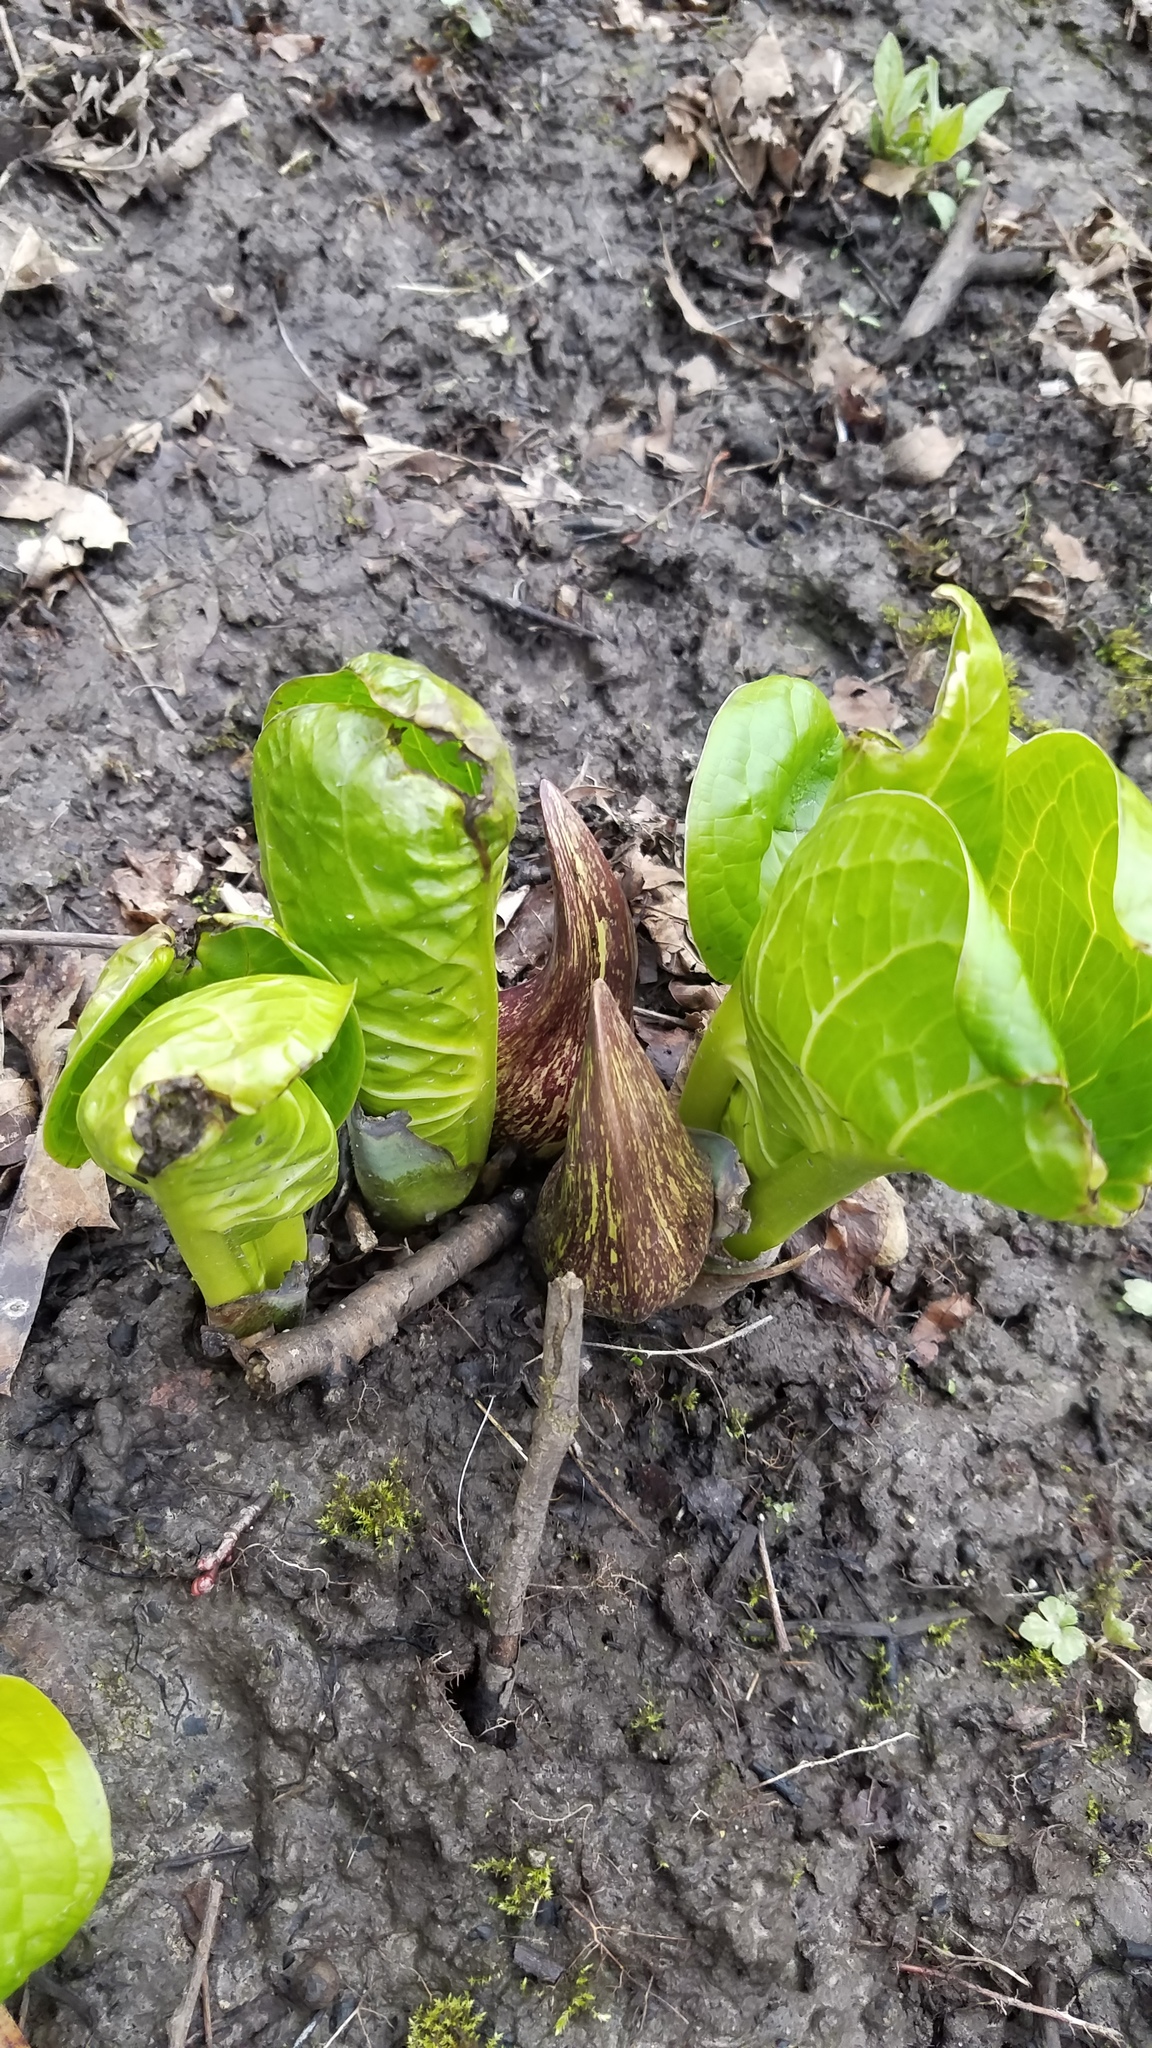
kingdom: Plantae
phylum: Tracheophyta
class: Liliopsida
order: Alismatales
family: Araceae
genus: Symplocarpus
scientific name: Symplocarpus foetidus
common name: Eastern skunk cabbage
